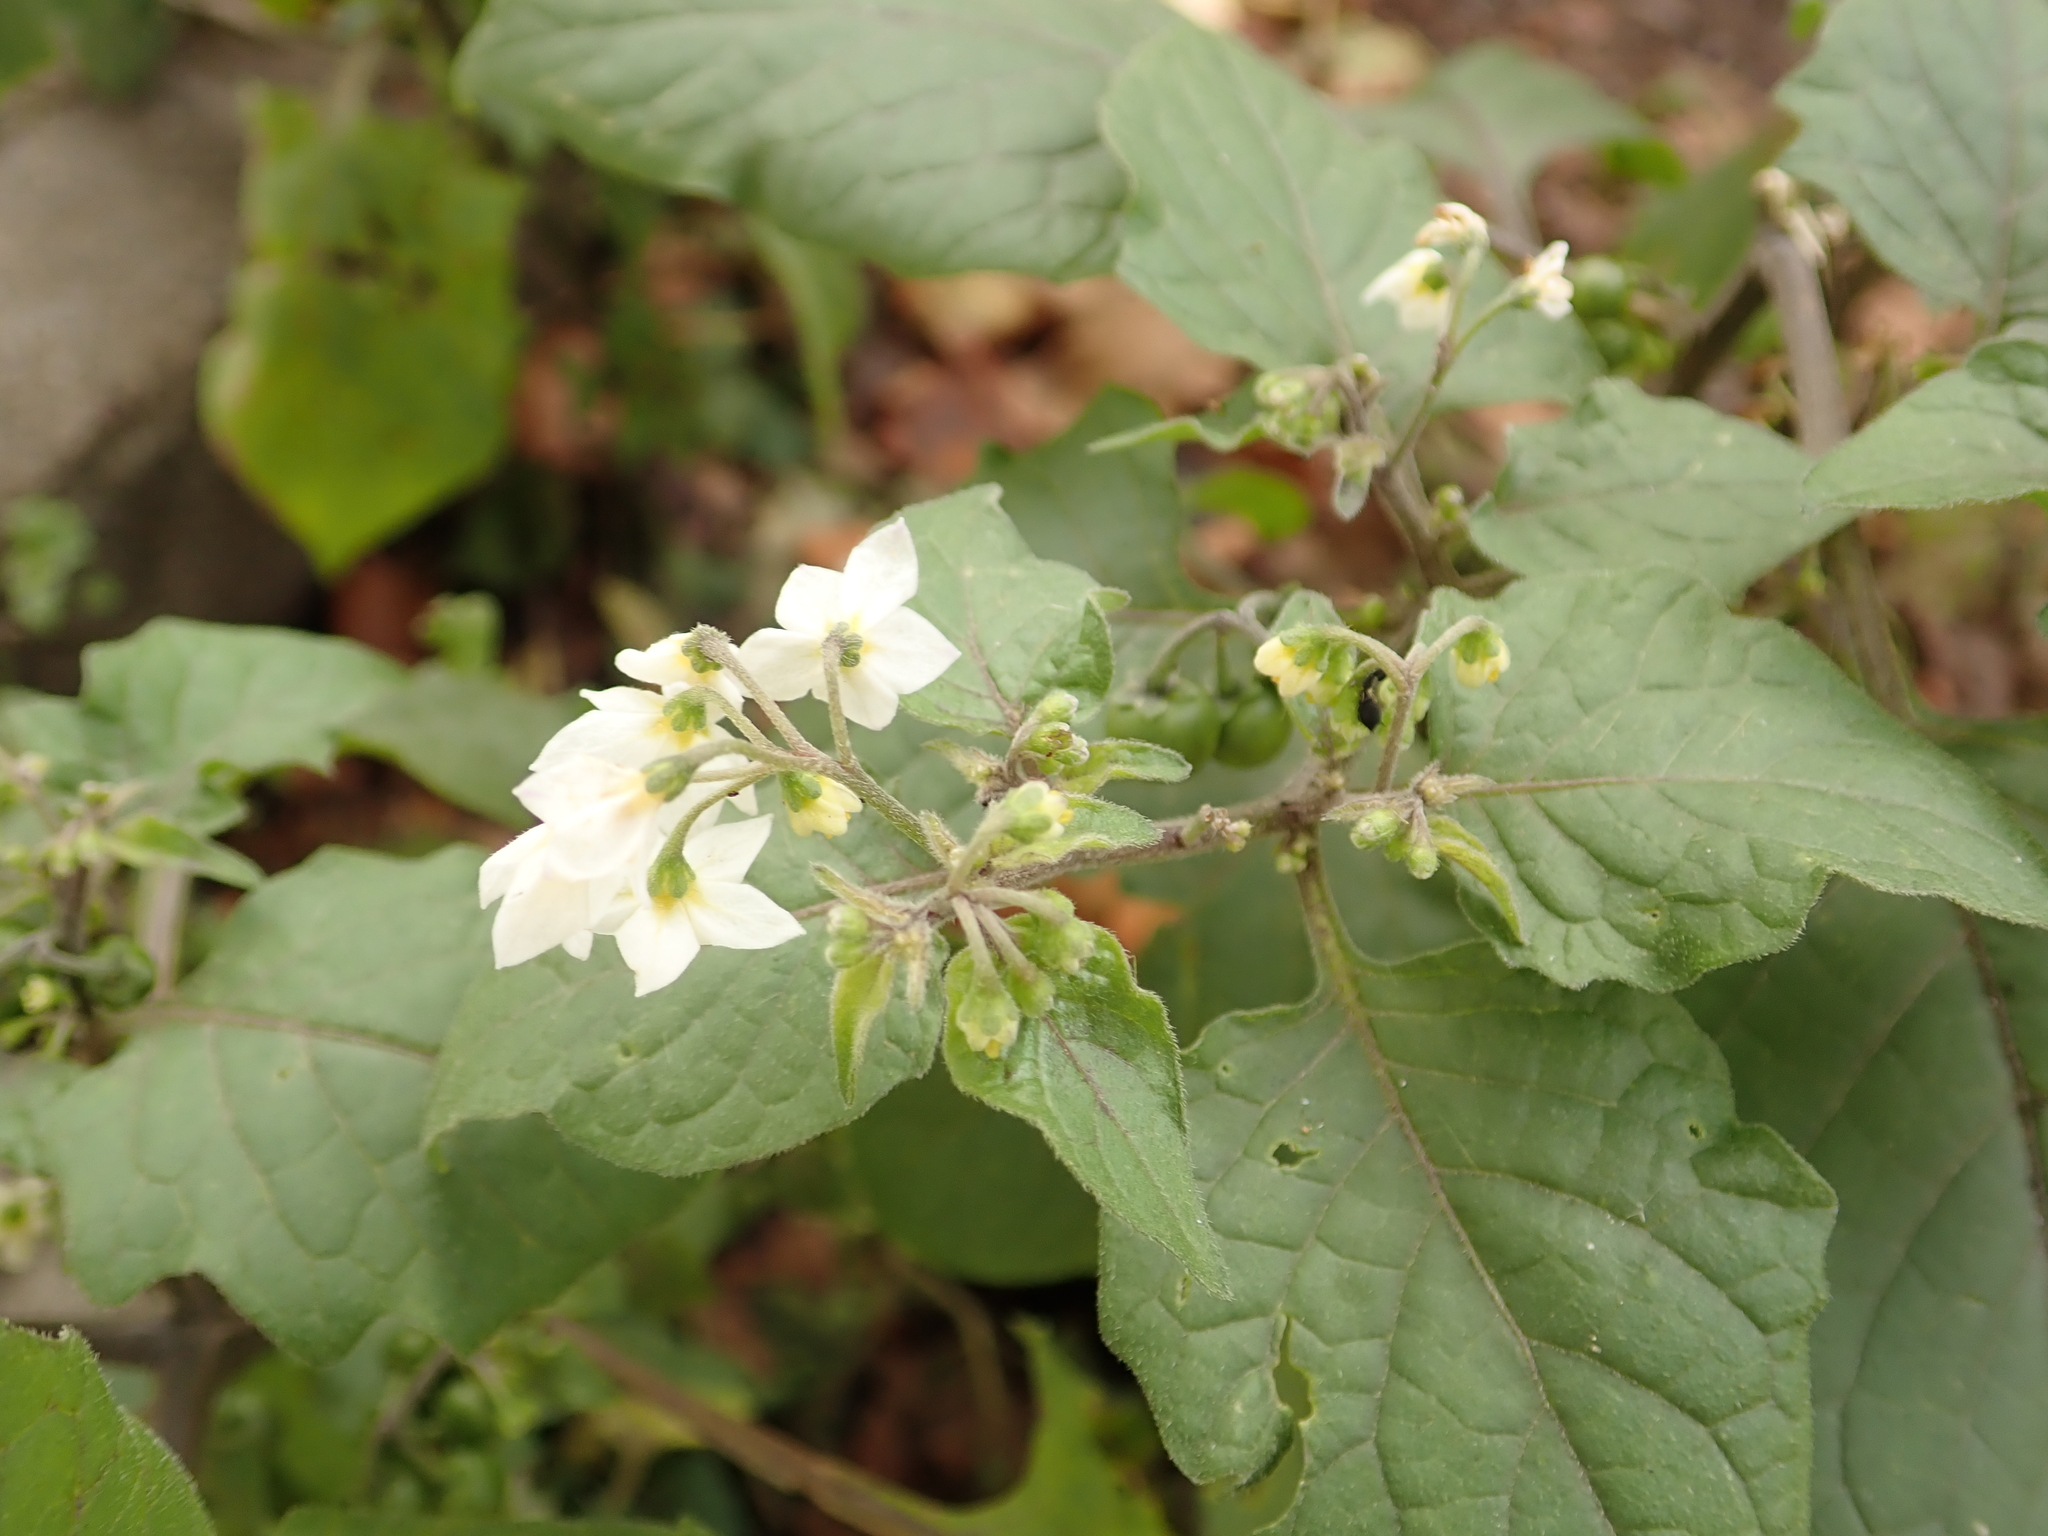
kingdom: Plantae
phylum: Tracheophyta
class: Magnoliopsida
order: Solanales
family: Solanaceae
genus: Solanum
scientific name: Solanum nigrum
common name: Black nightshade
